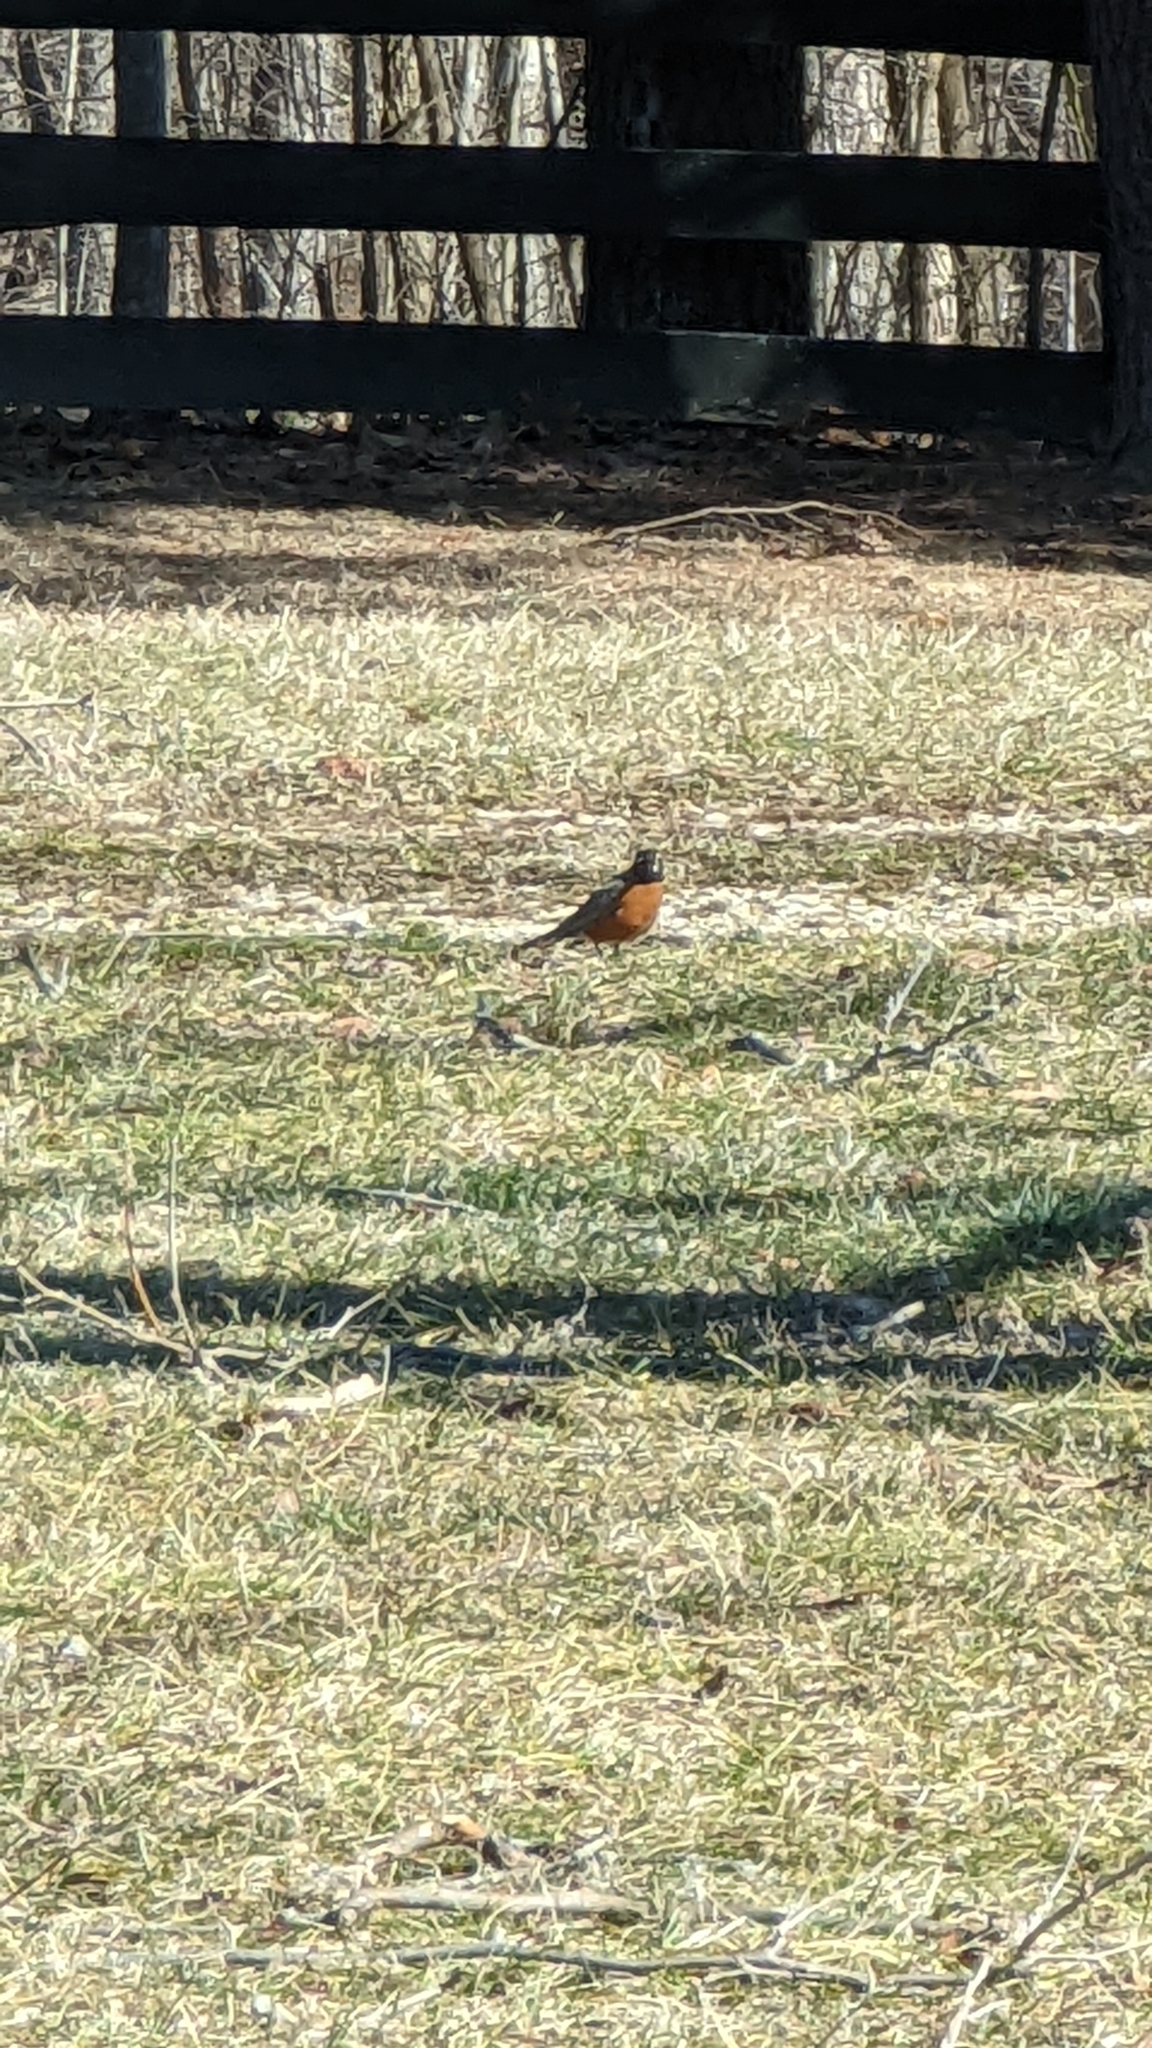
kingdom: Animalia
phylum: Chordata
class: Aves
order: Passeriformes
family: Turdidae
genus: Turdus
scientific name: Turdus migratorius
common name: American robin
